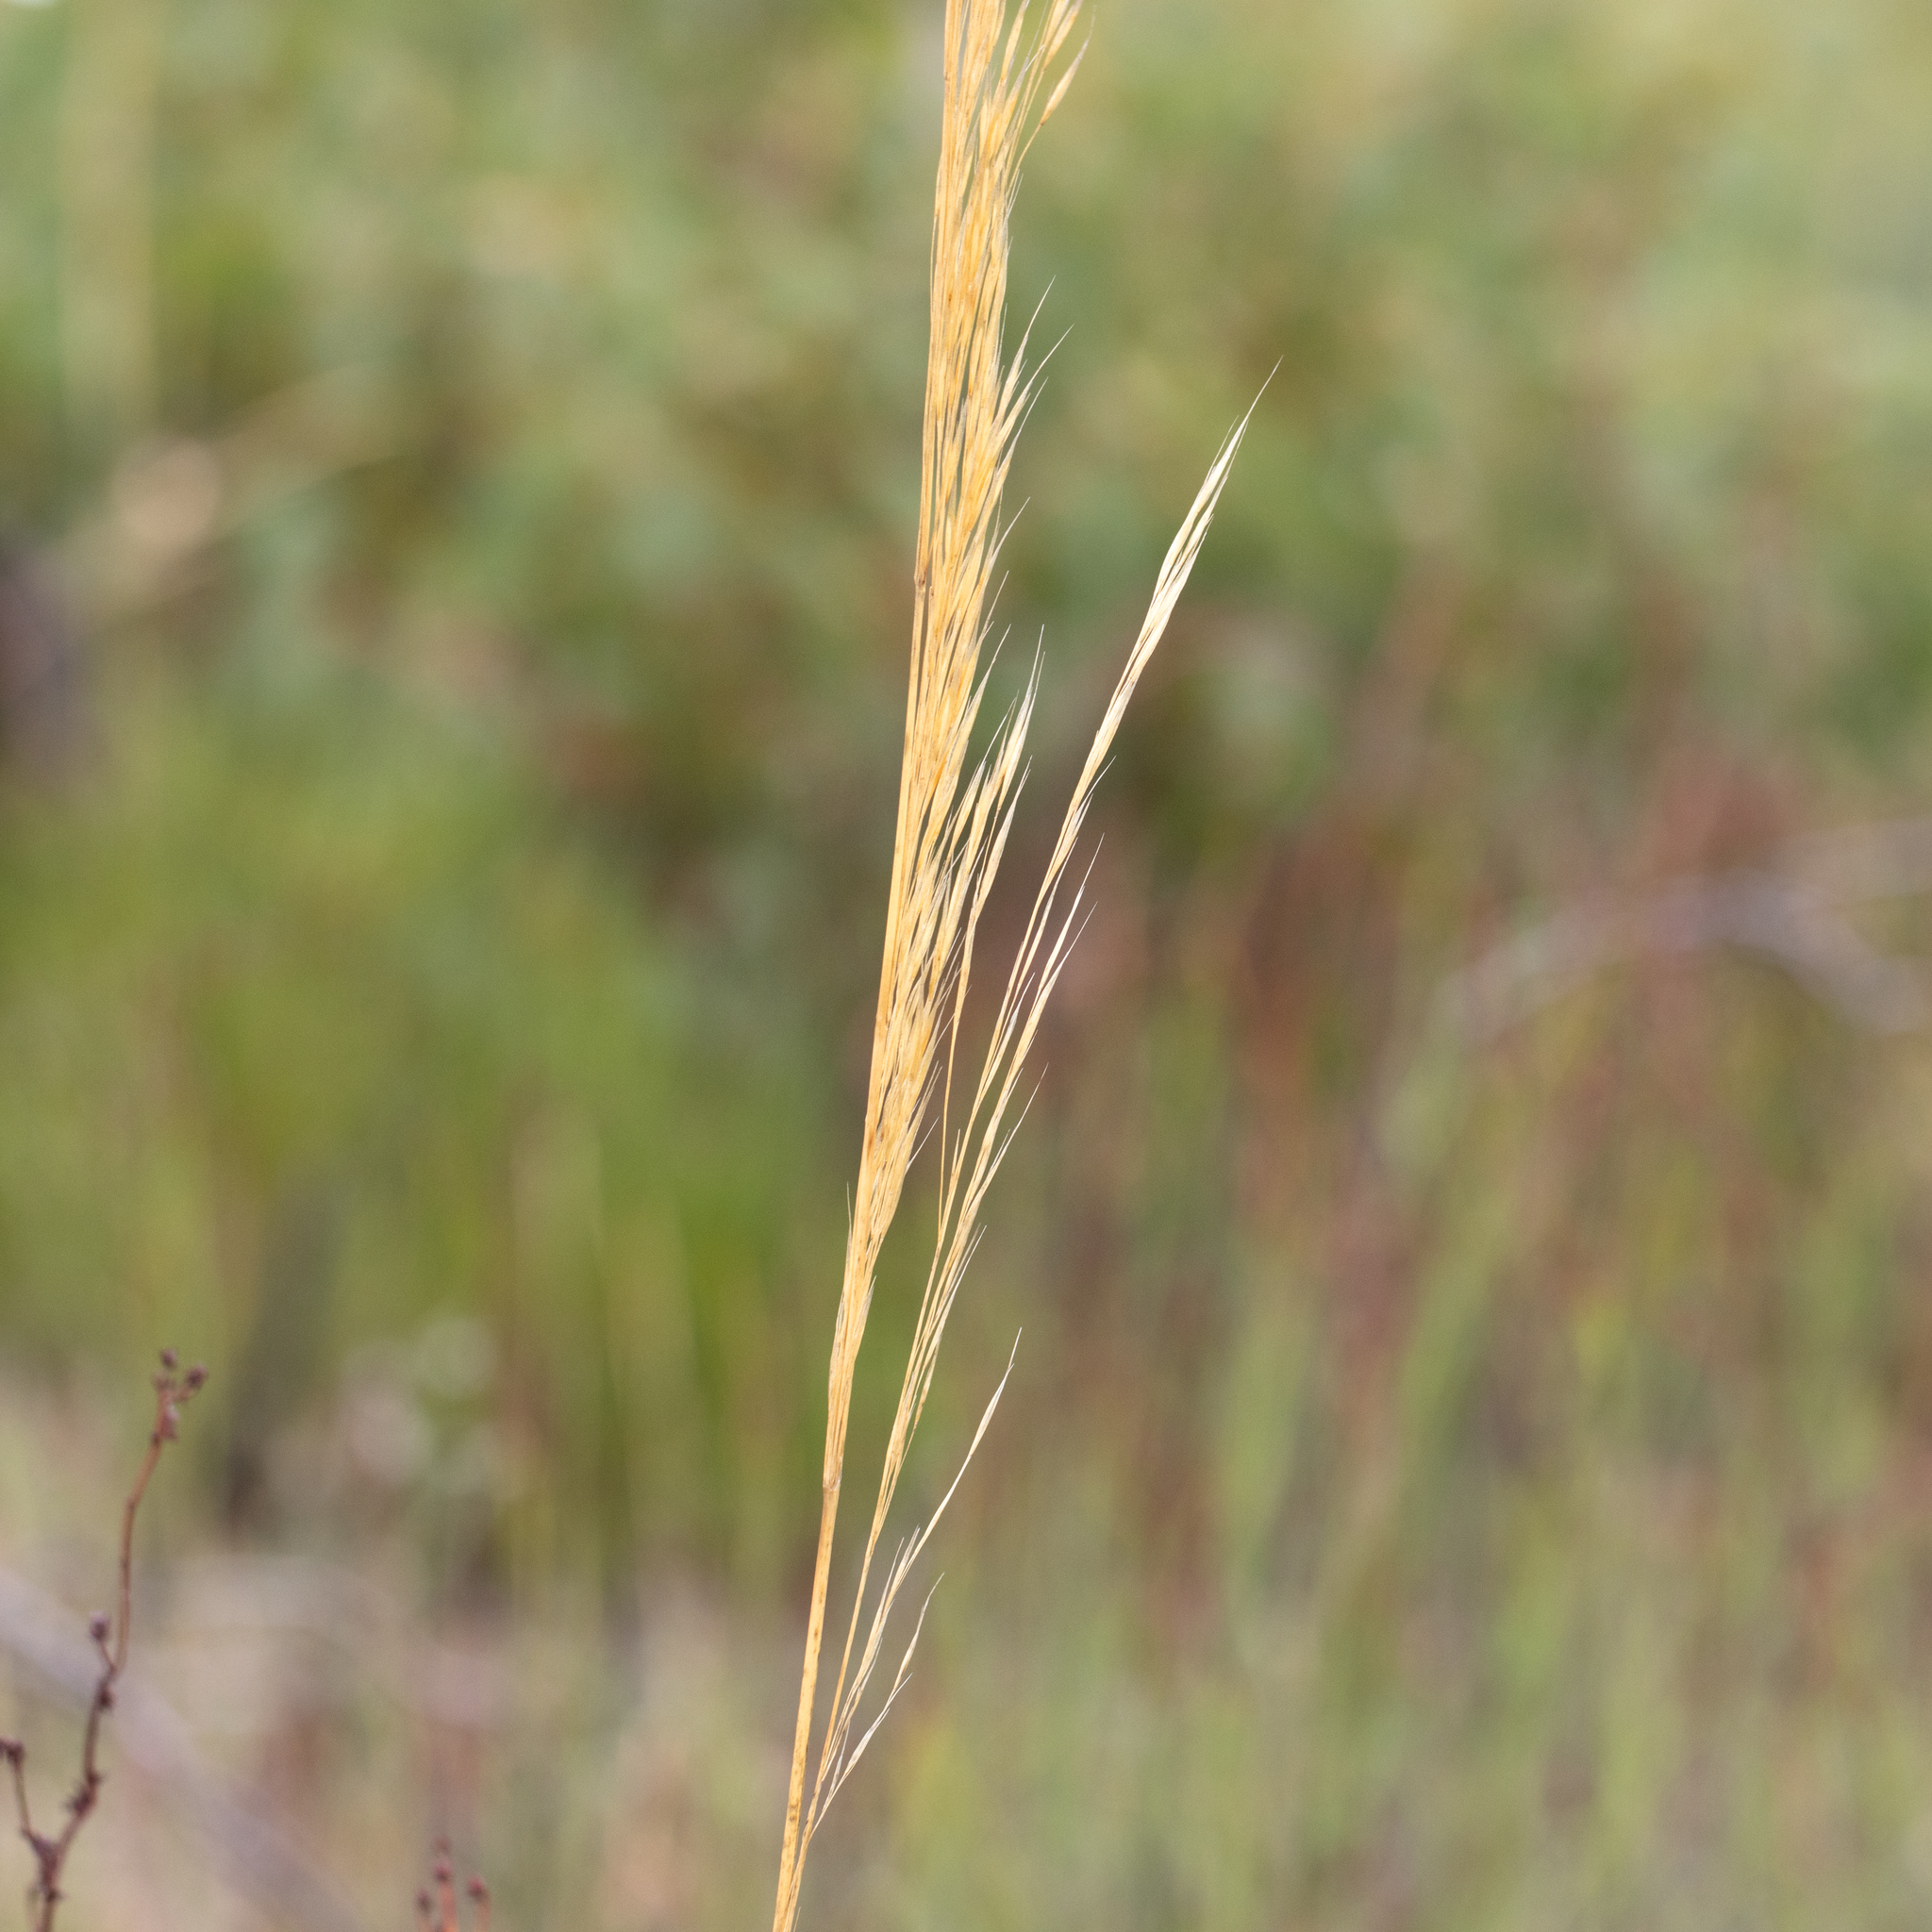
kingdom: Plantae
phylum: Tracheophyta
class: Liliopsida
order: Poales
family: Poaceae
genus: Austrostipa
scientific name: Austrostipa macalpinei
